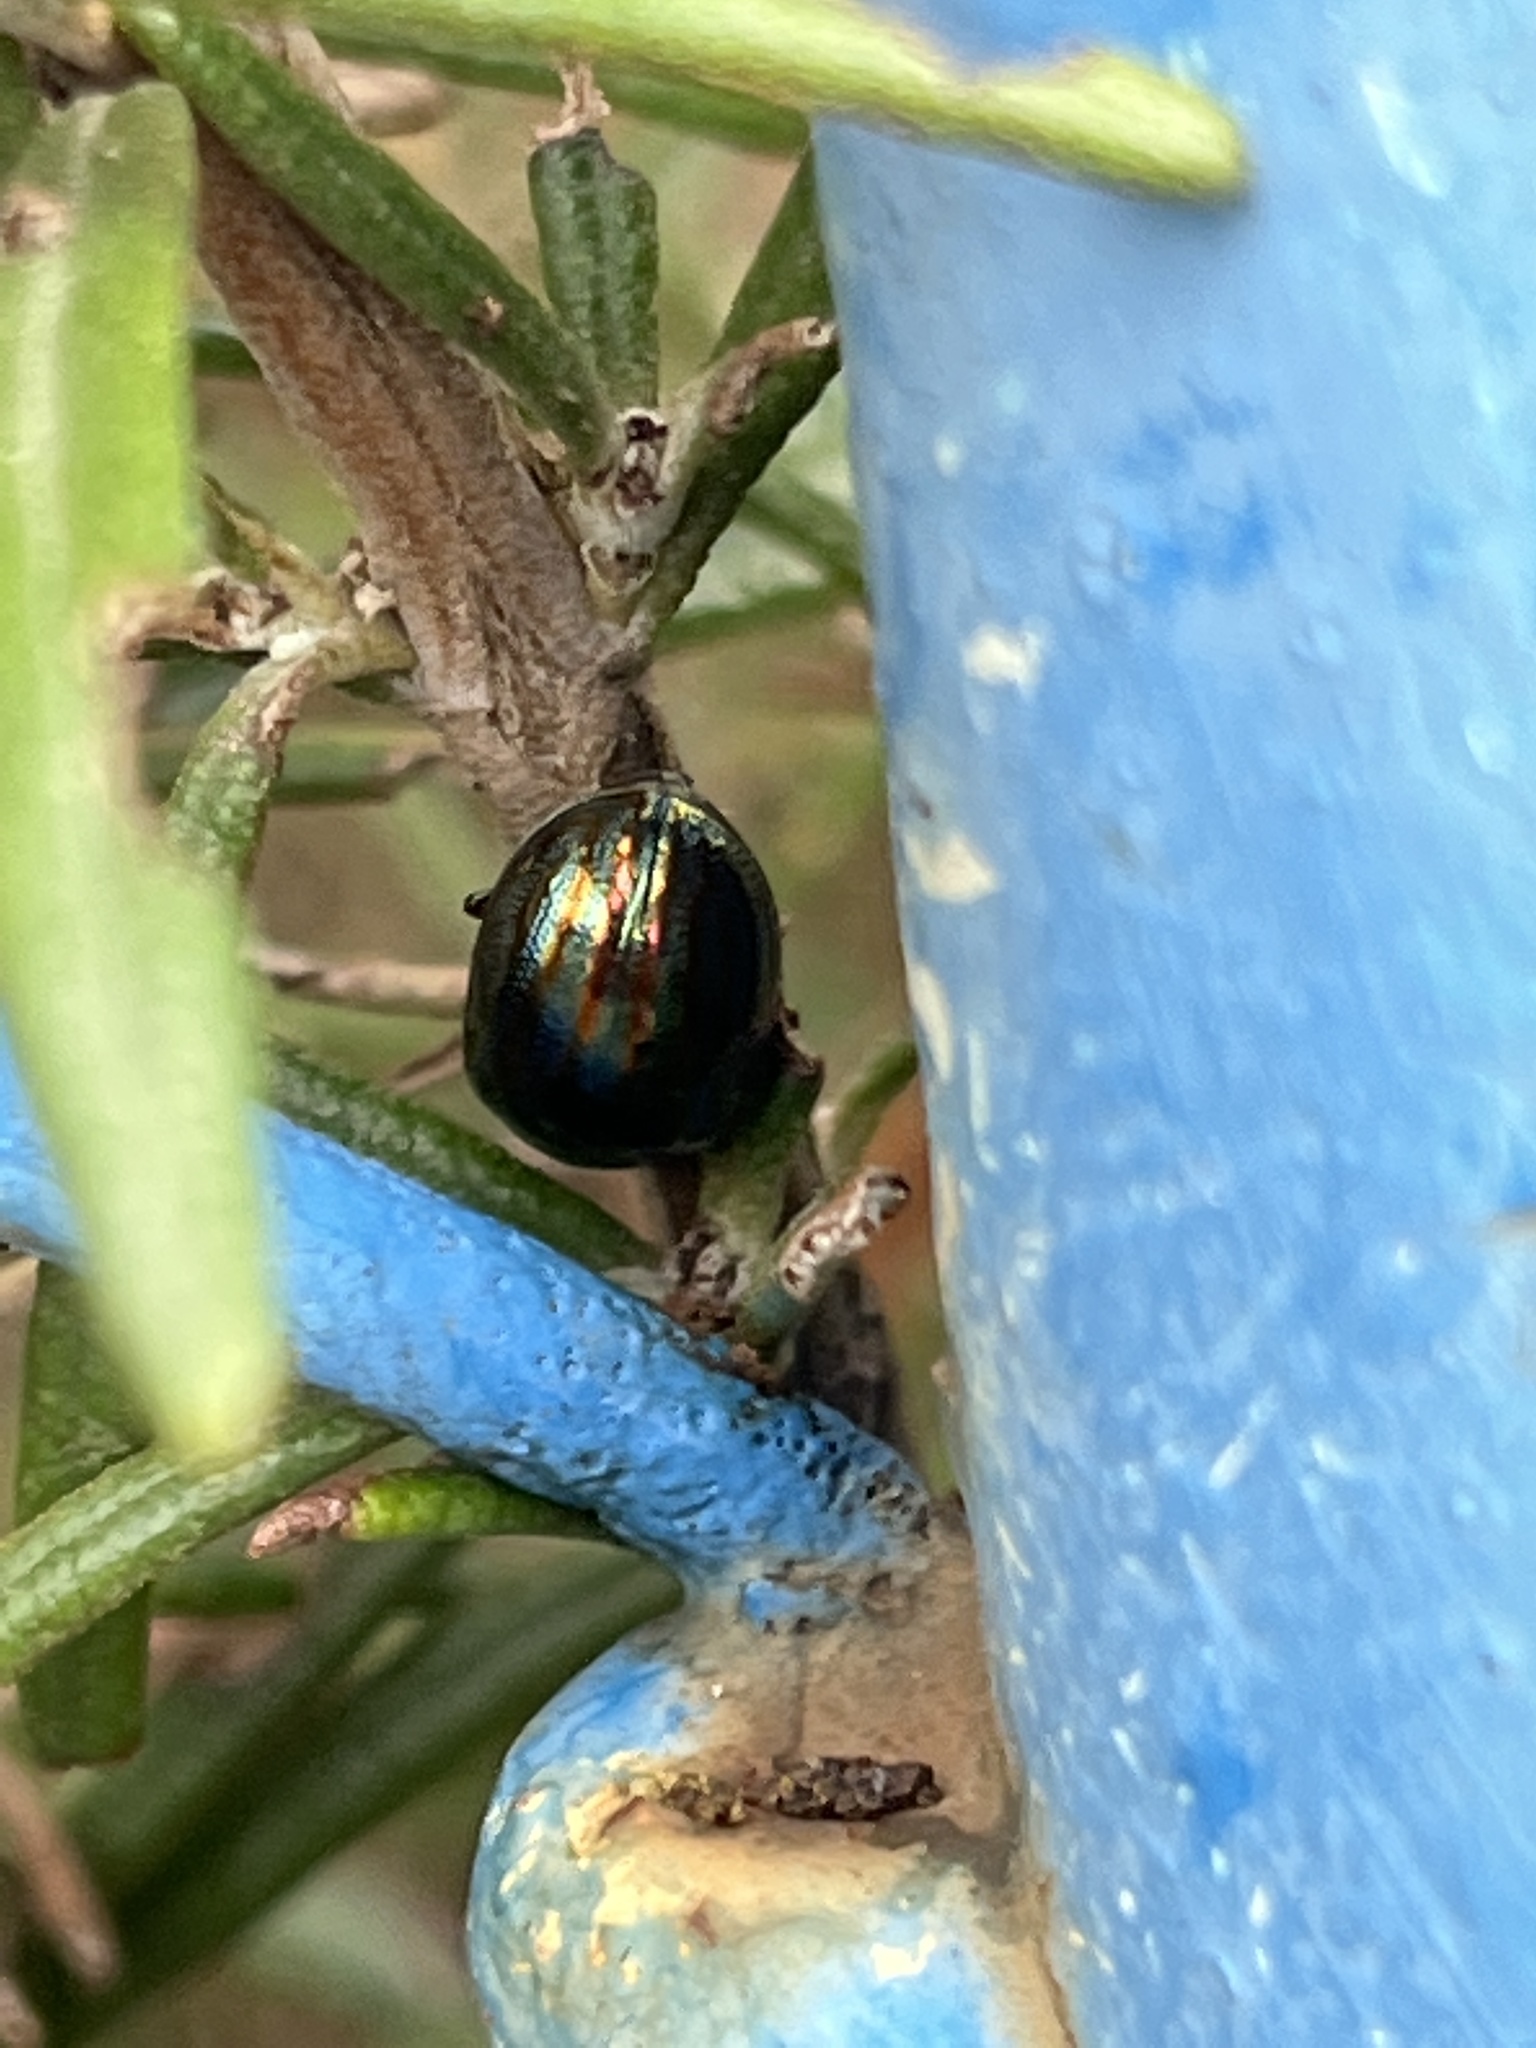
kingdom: Animalia
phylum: Arthropoda
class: Insecta
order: Coleoptera
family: Chrysomelidae
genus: Chrysolina
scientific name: Chrysolina americana
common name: Rosemary beetle
